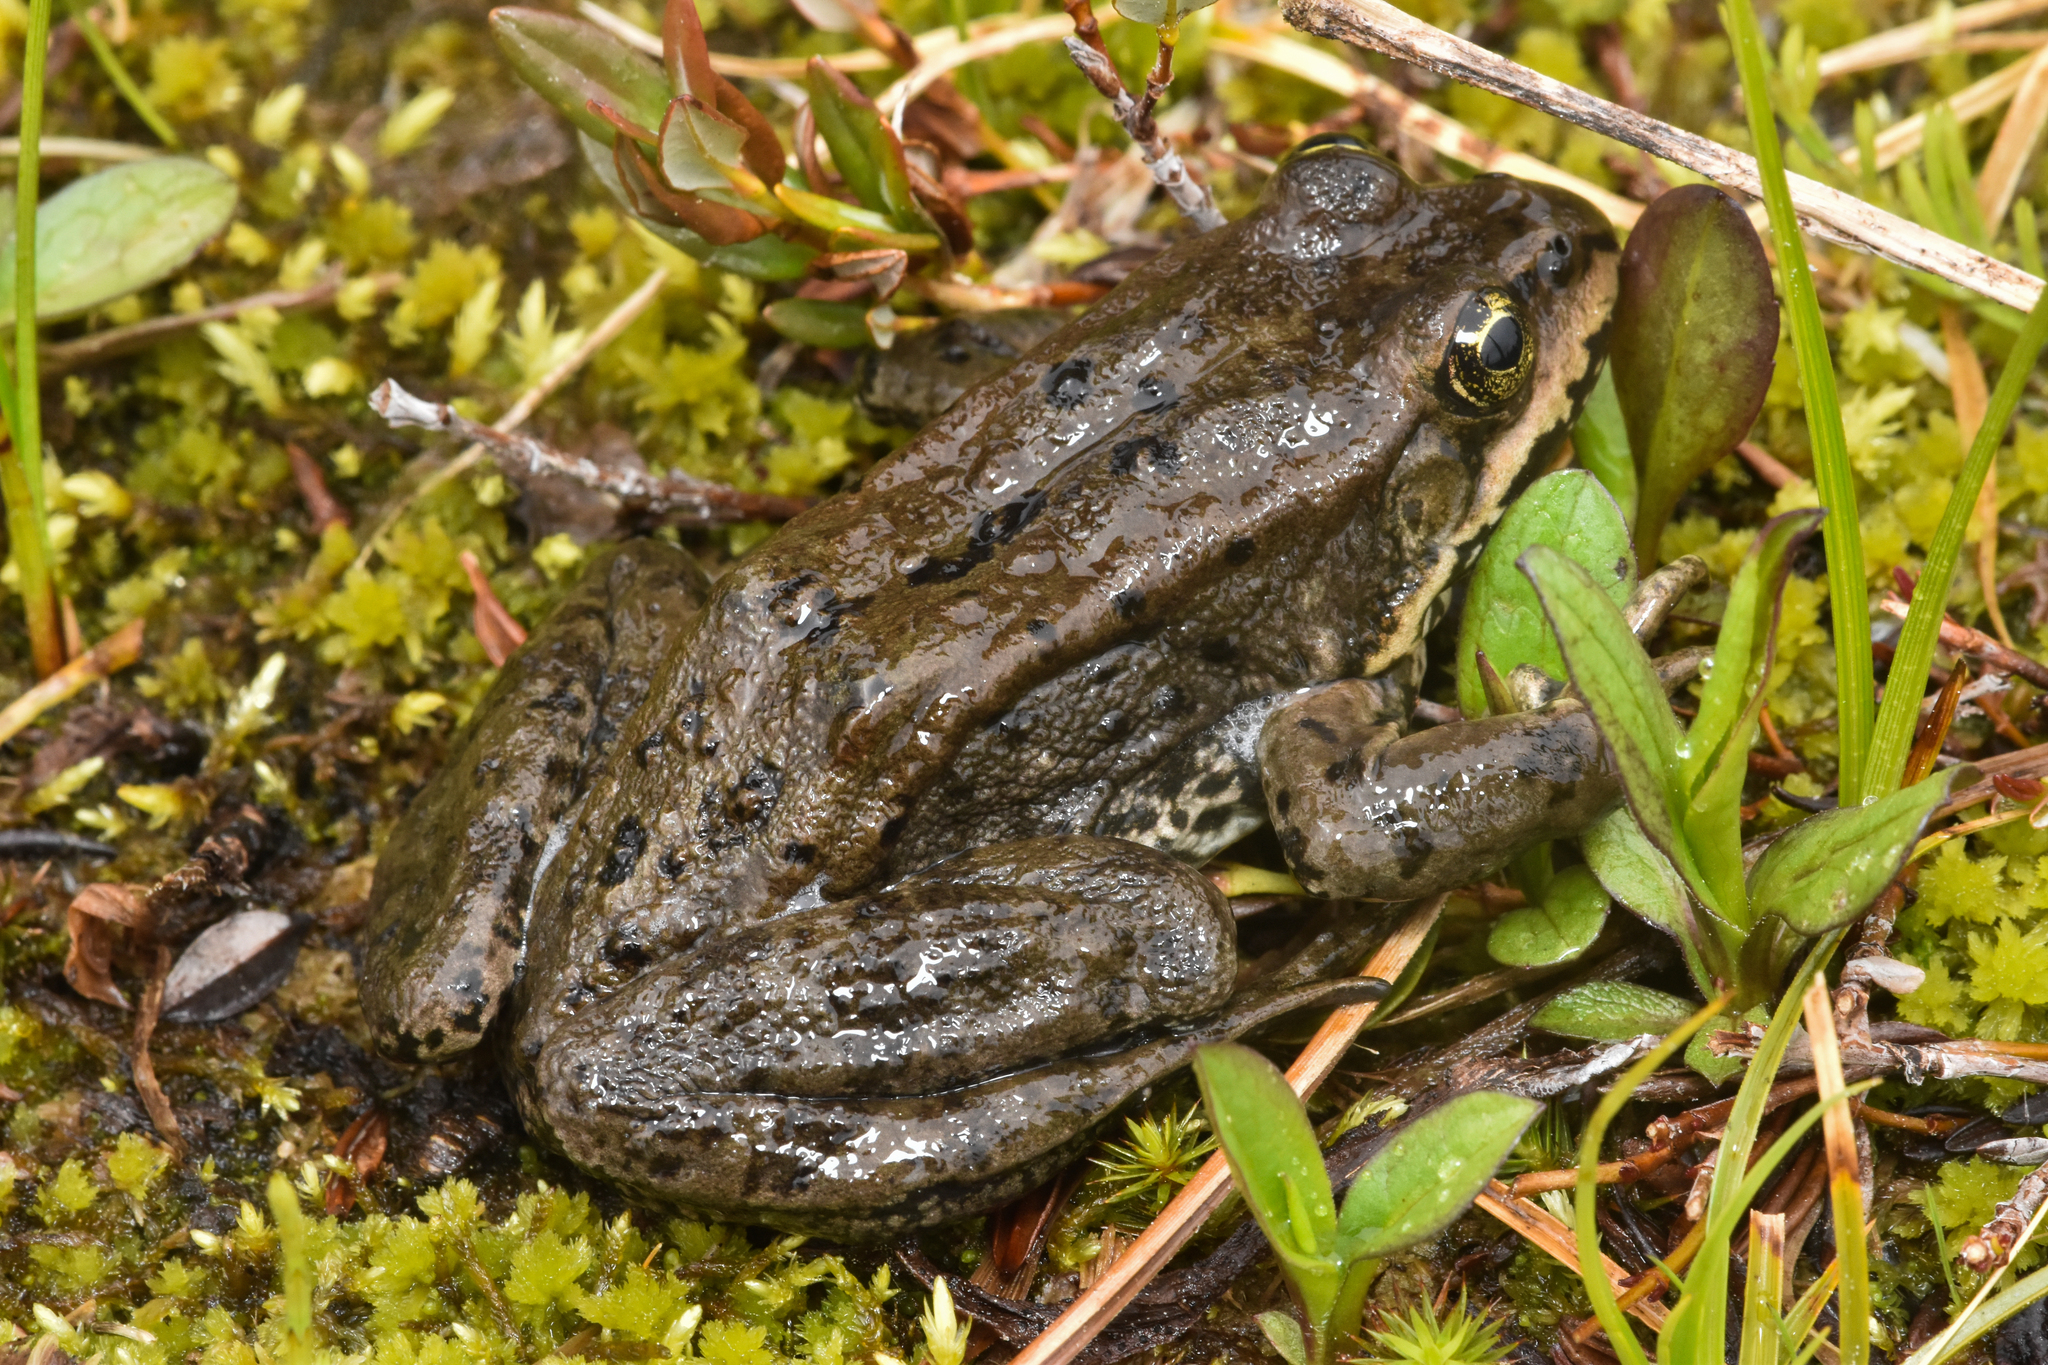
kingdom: Animalia
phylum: Chordata
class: Amphibia
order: Anura
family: Ranidae
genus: Rana
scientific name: Rana luteiventris
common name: Columbia spotted frog
